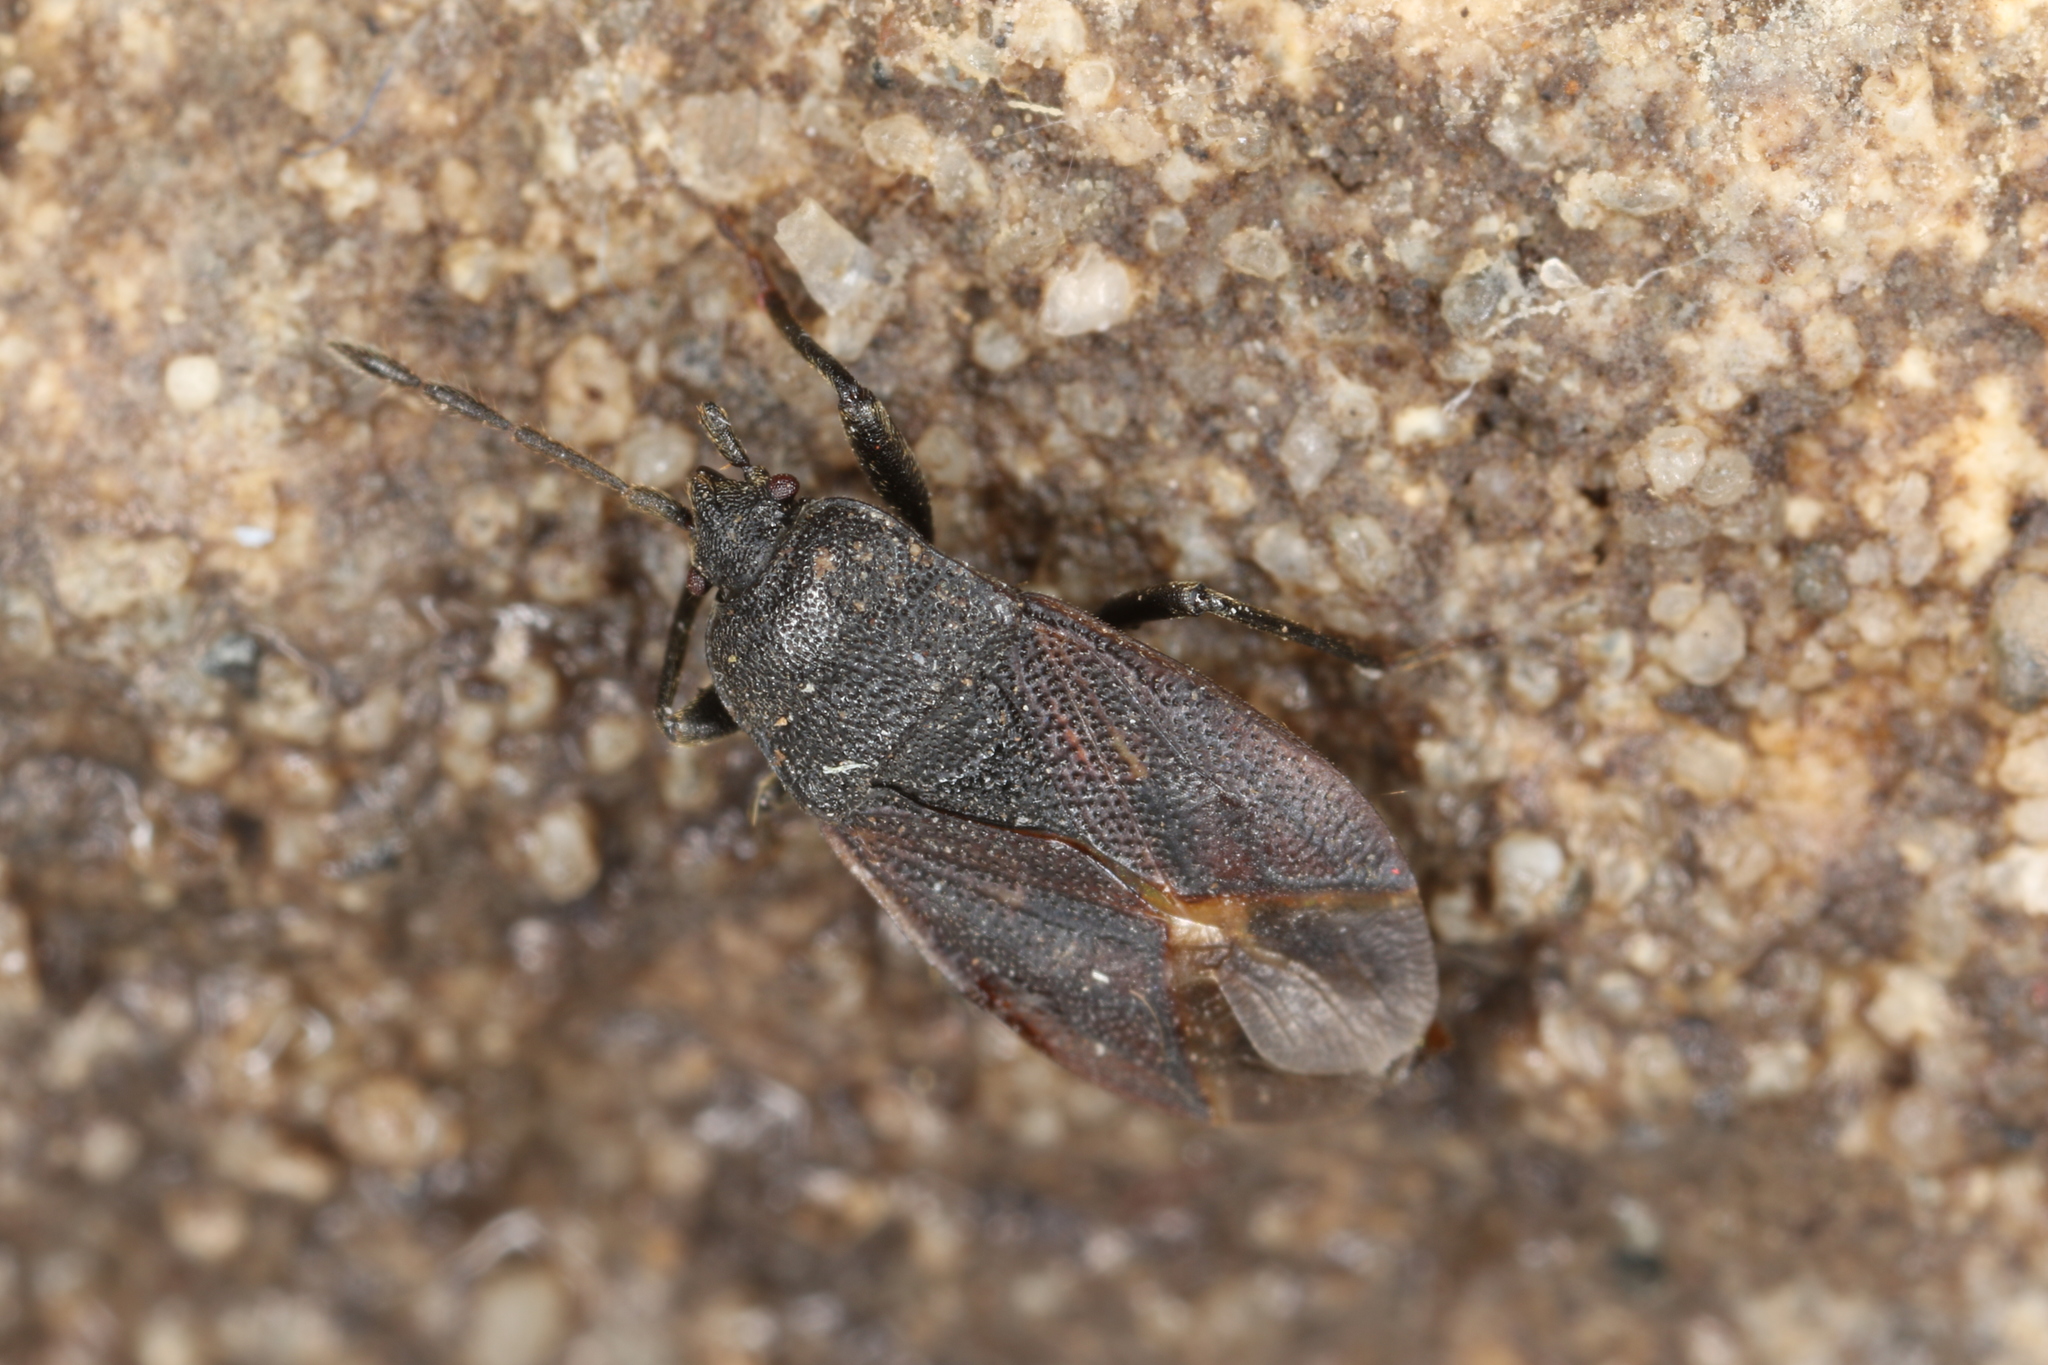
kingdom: Animalia
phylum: Arthropoda
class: Insecta
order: Hemiptera
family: Rhyparochromidae
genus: Drymus
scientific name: Drymus ryeii
